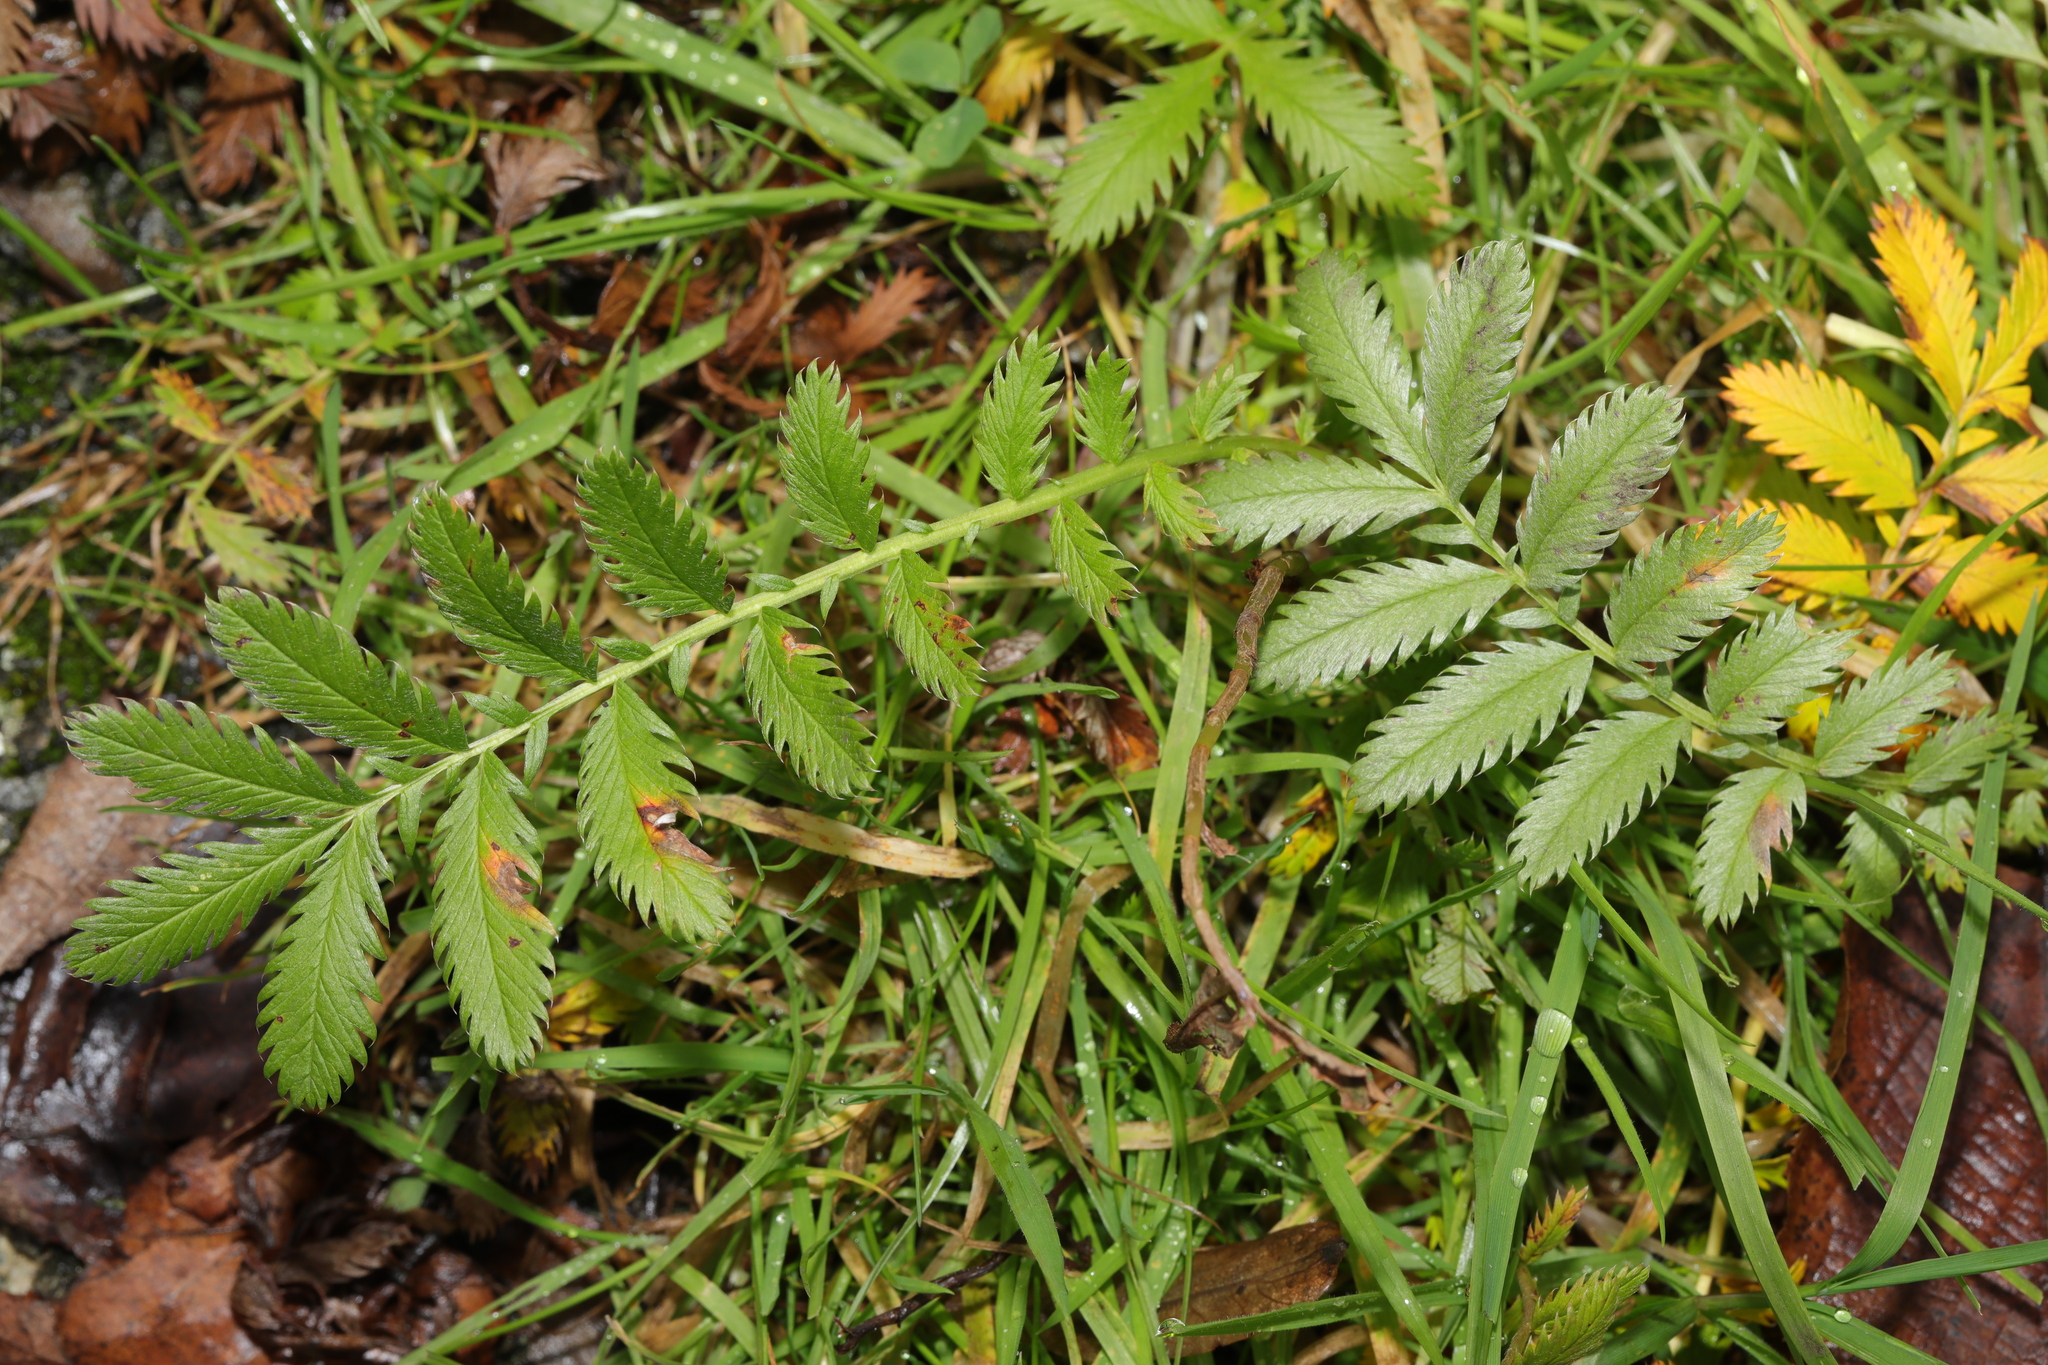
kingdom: Plantae
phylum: Tracheophyta
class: Magnoliopsida
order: Rosales
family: Rosaceae
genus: Argentina
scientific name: Argentina anserina
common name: Common silverweed
